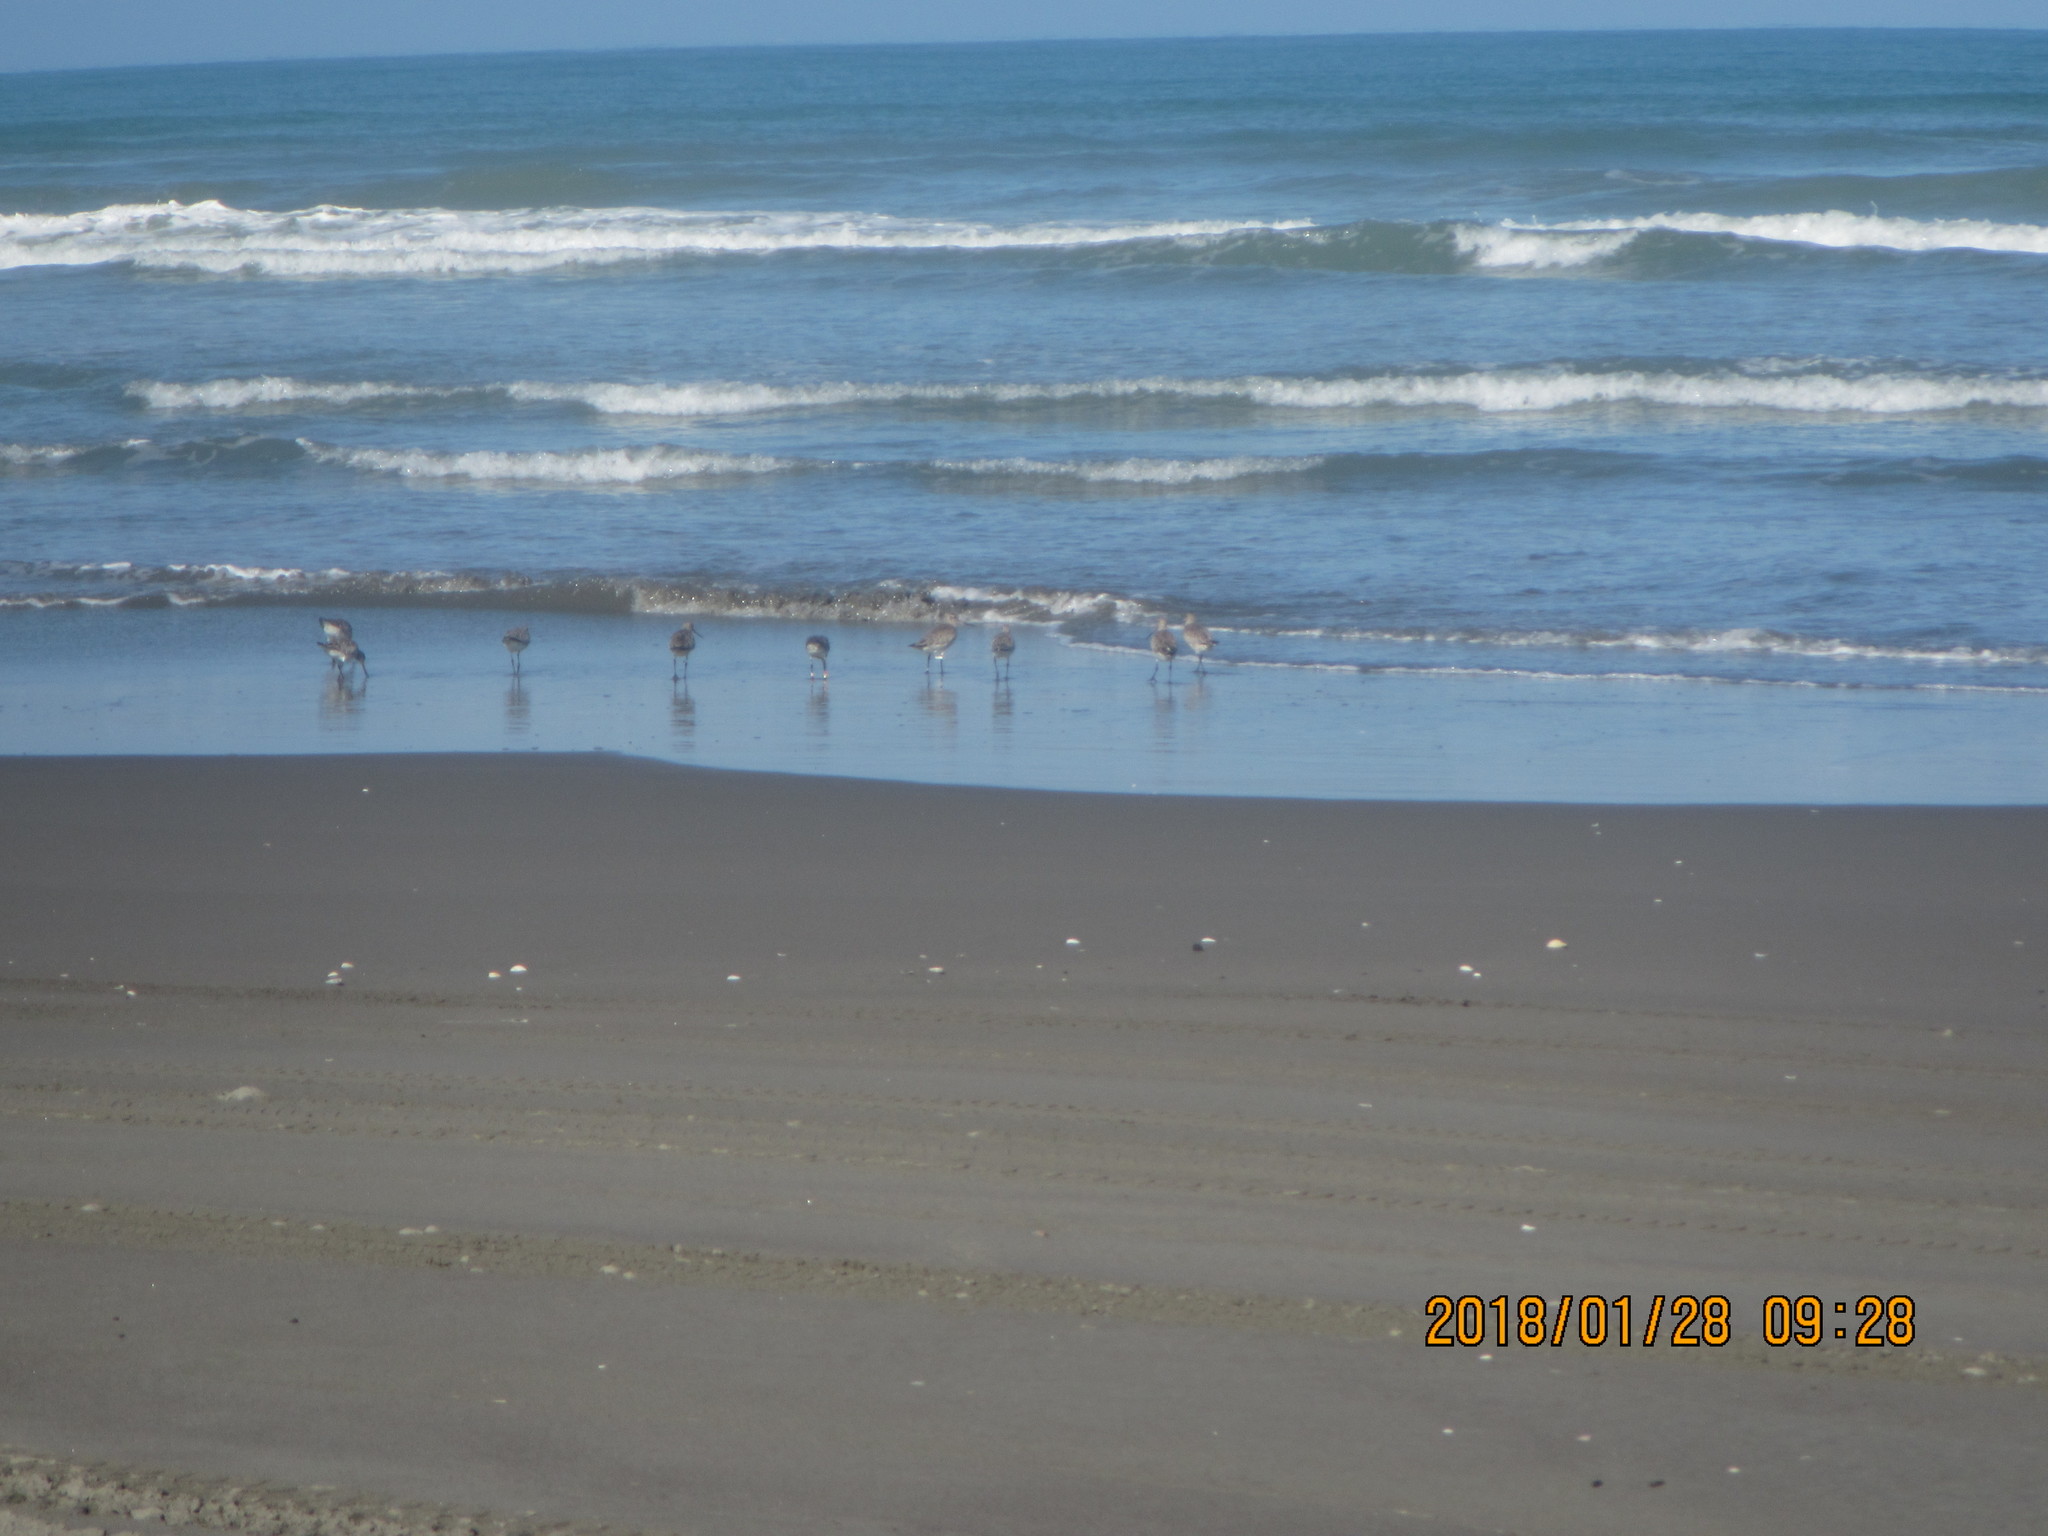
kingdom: Animalia
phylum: Chordata
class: Aves
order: Charadriiformes
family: Scolopacidae
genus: Limosa
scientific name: Limosa lapponica
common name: Bar-tailed godwit
